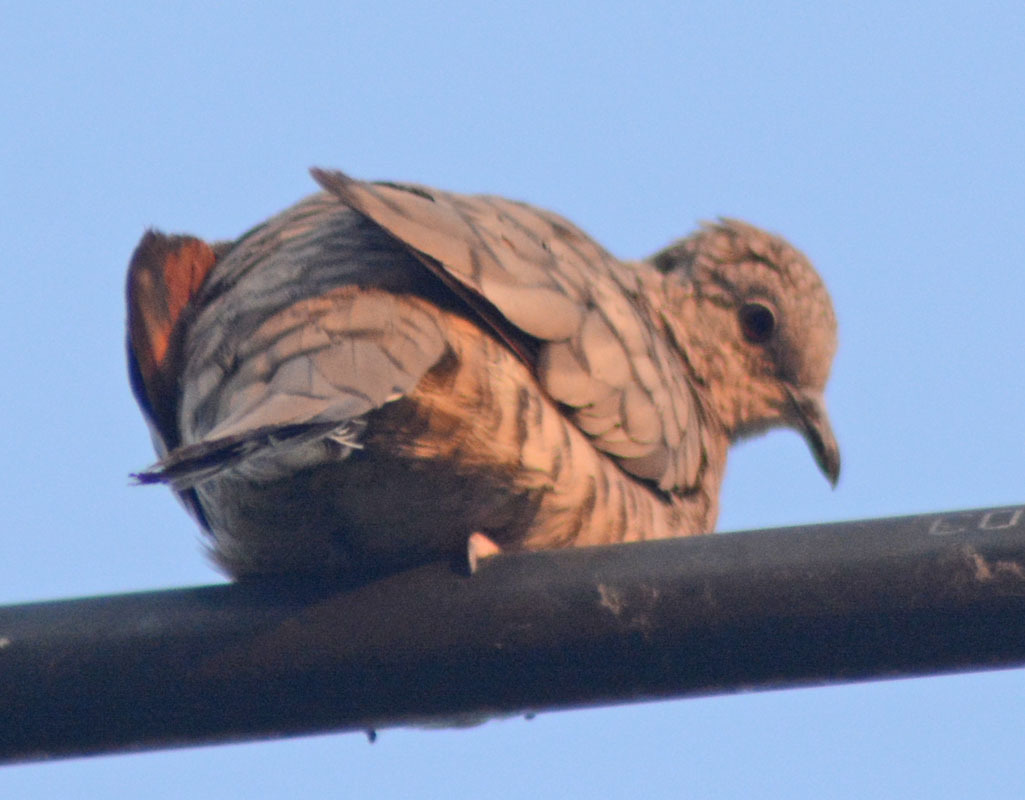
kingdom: Animalia
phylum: Chordata
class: Aves
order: Columbiformes
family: Columbidae
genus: Columbina
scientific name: Columbina inca
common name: Inca dove
